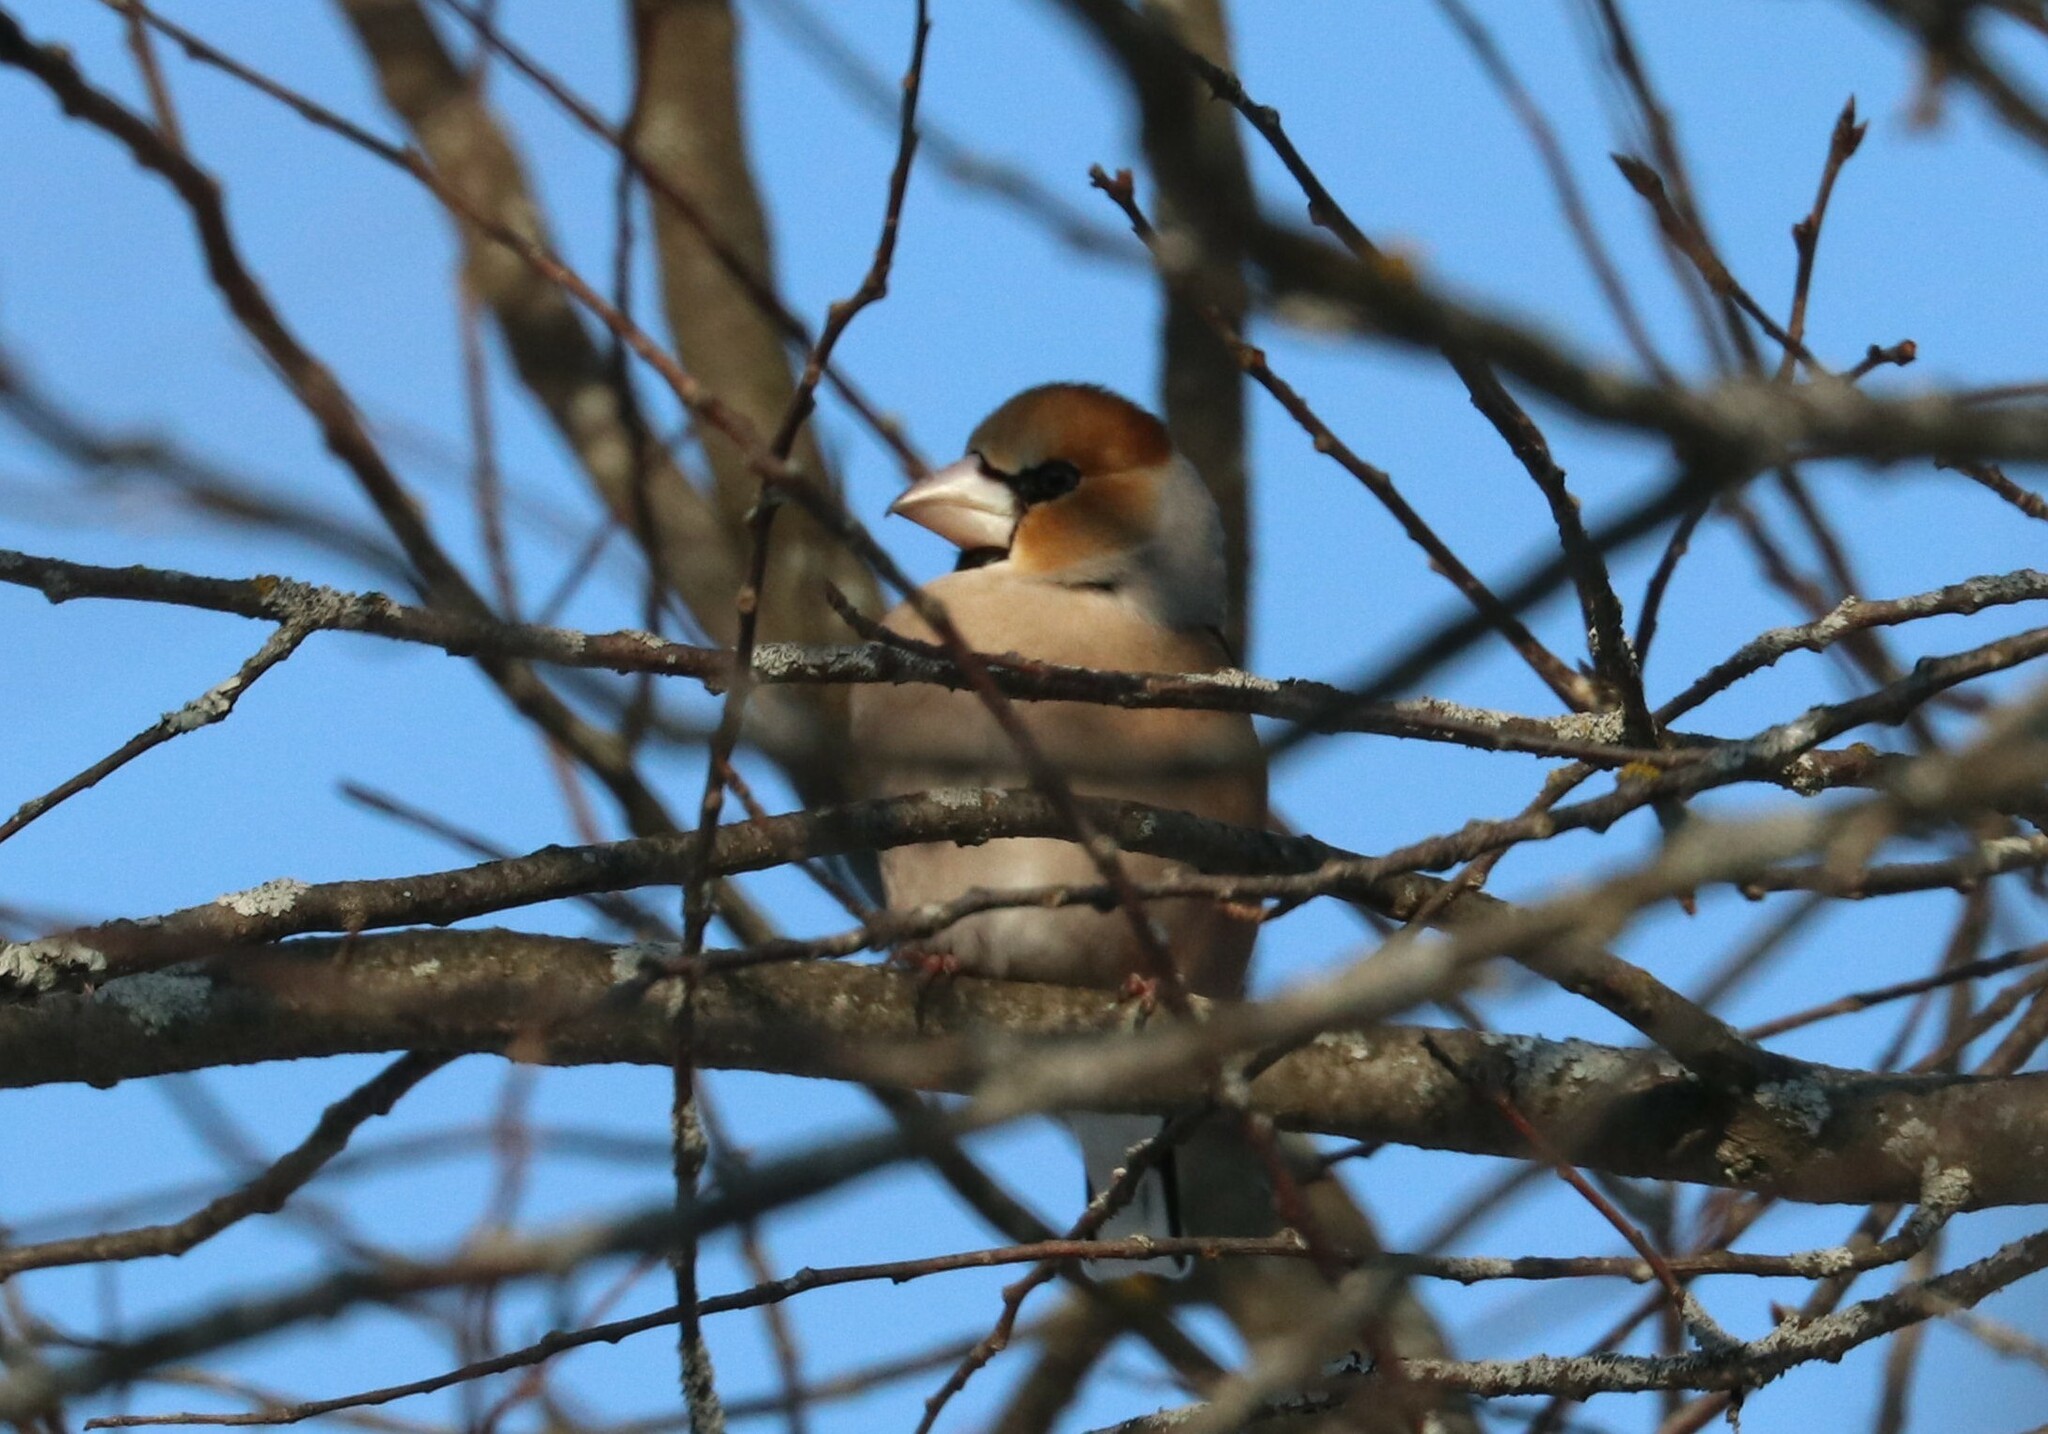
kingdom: Animalia
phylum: Chordata
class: Aves
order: Passeriformes
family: Fringillidae
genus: Coccothraustes
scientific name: Coccothraustes coccothraustes
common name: Hawfinch
